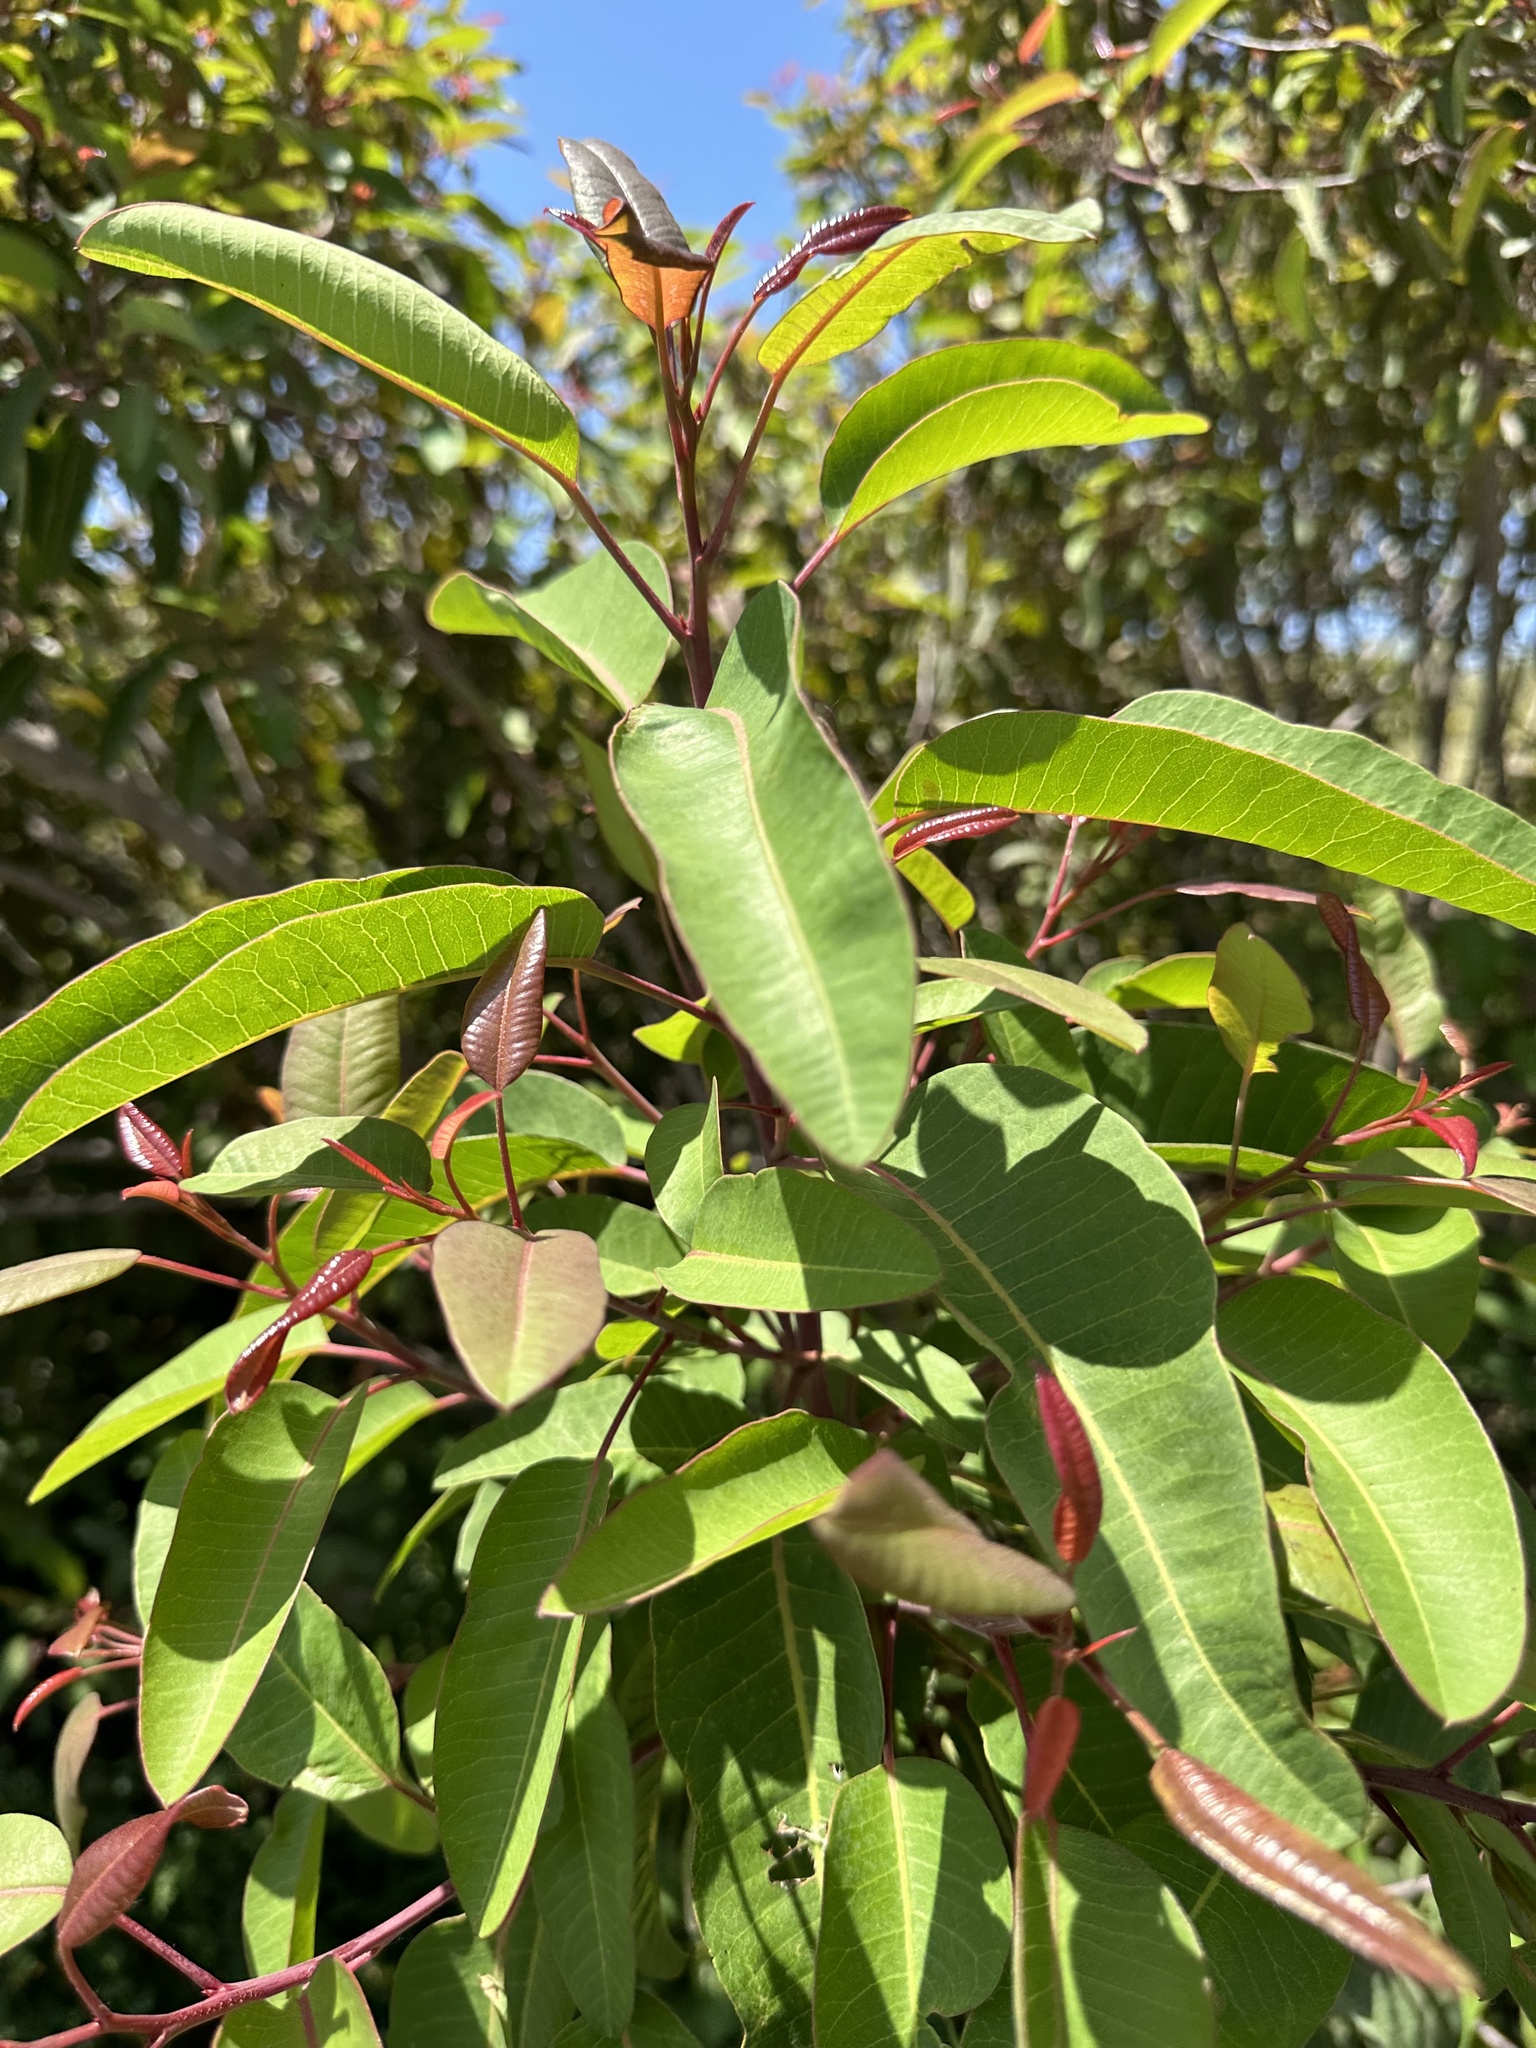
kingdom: Plantae
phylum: Tracheophyta
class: Magnoliopsida
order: Sapindales
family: Anacardiaceae
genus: Malosma
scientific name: Malosma laurina
